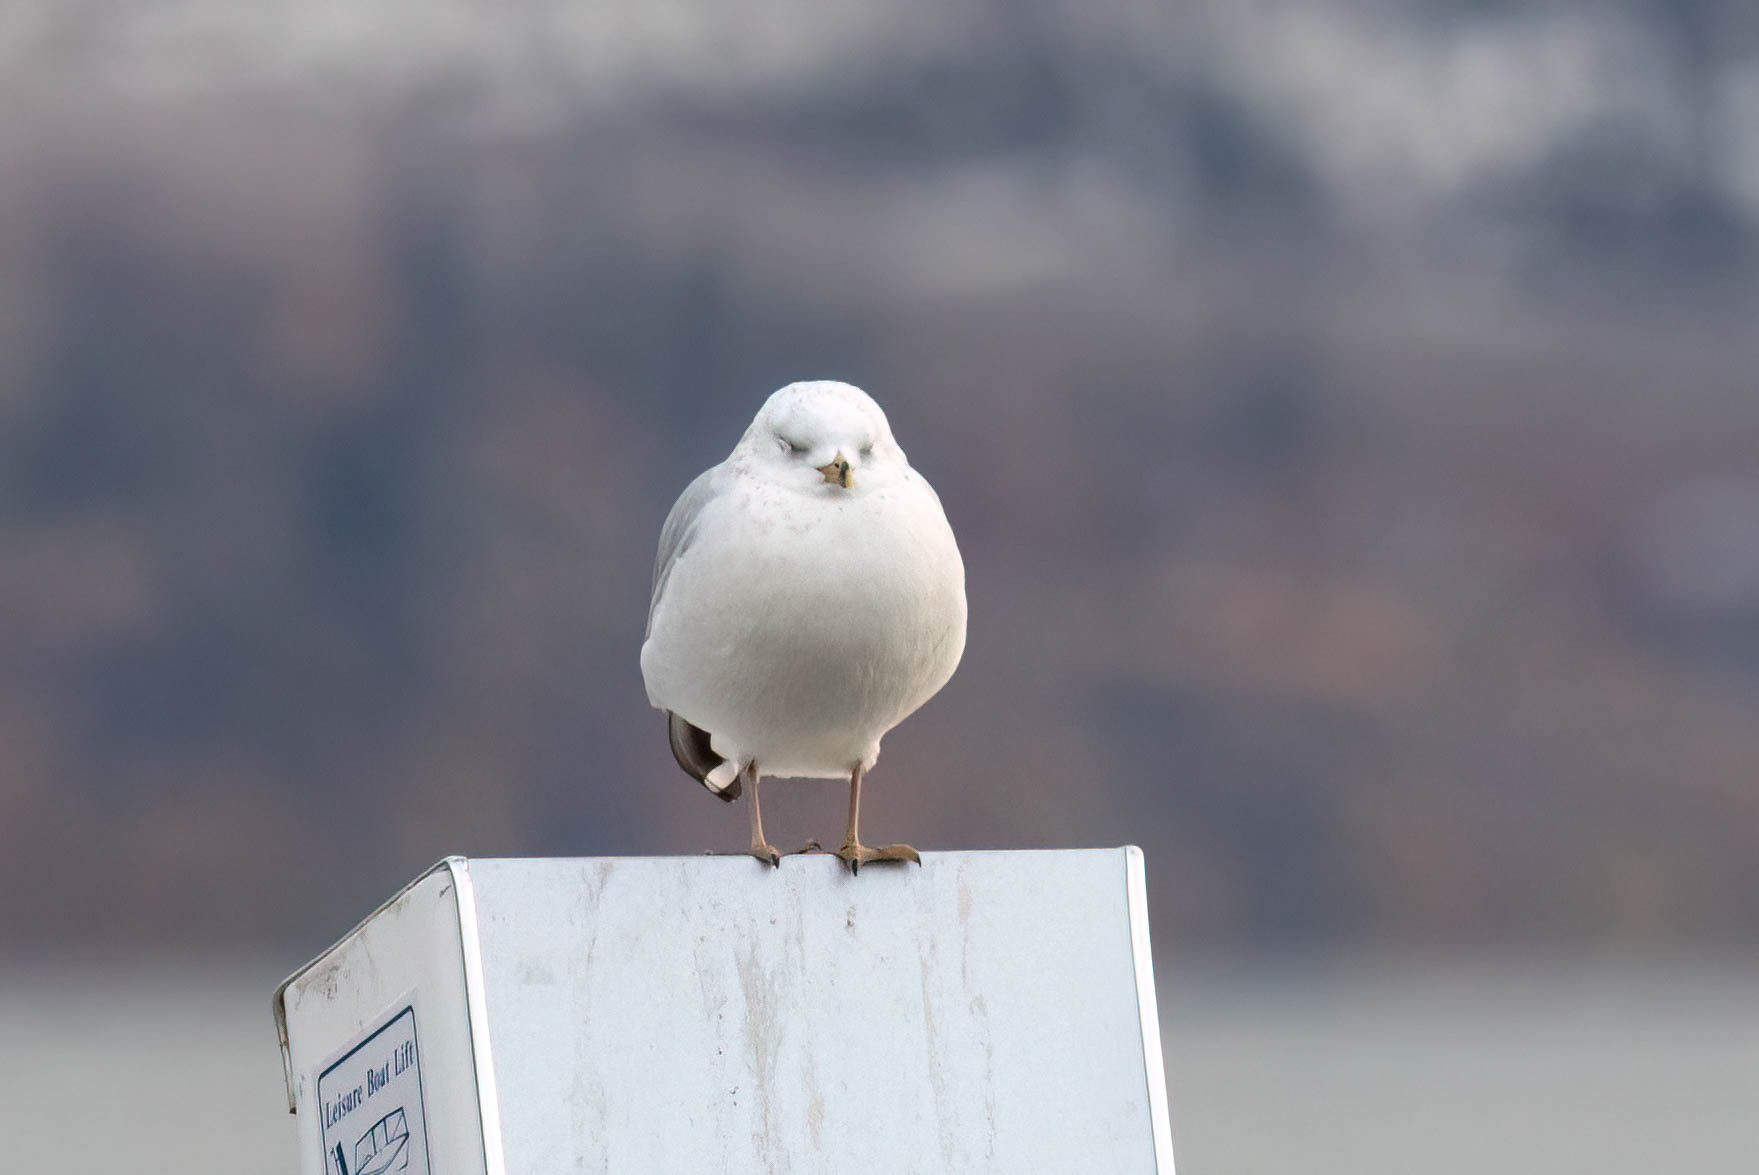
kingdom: Animalia
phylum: Chordata
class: Aves
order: Charadriiformes
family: Laridae
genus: Larus
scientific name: Larus delawarensis
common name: Ring-billed gull
